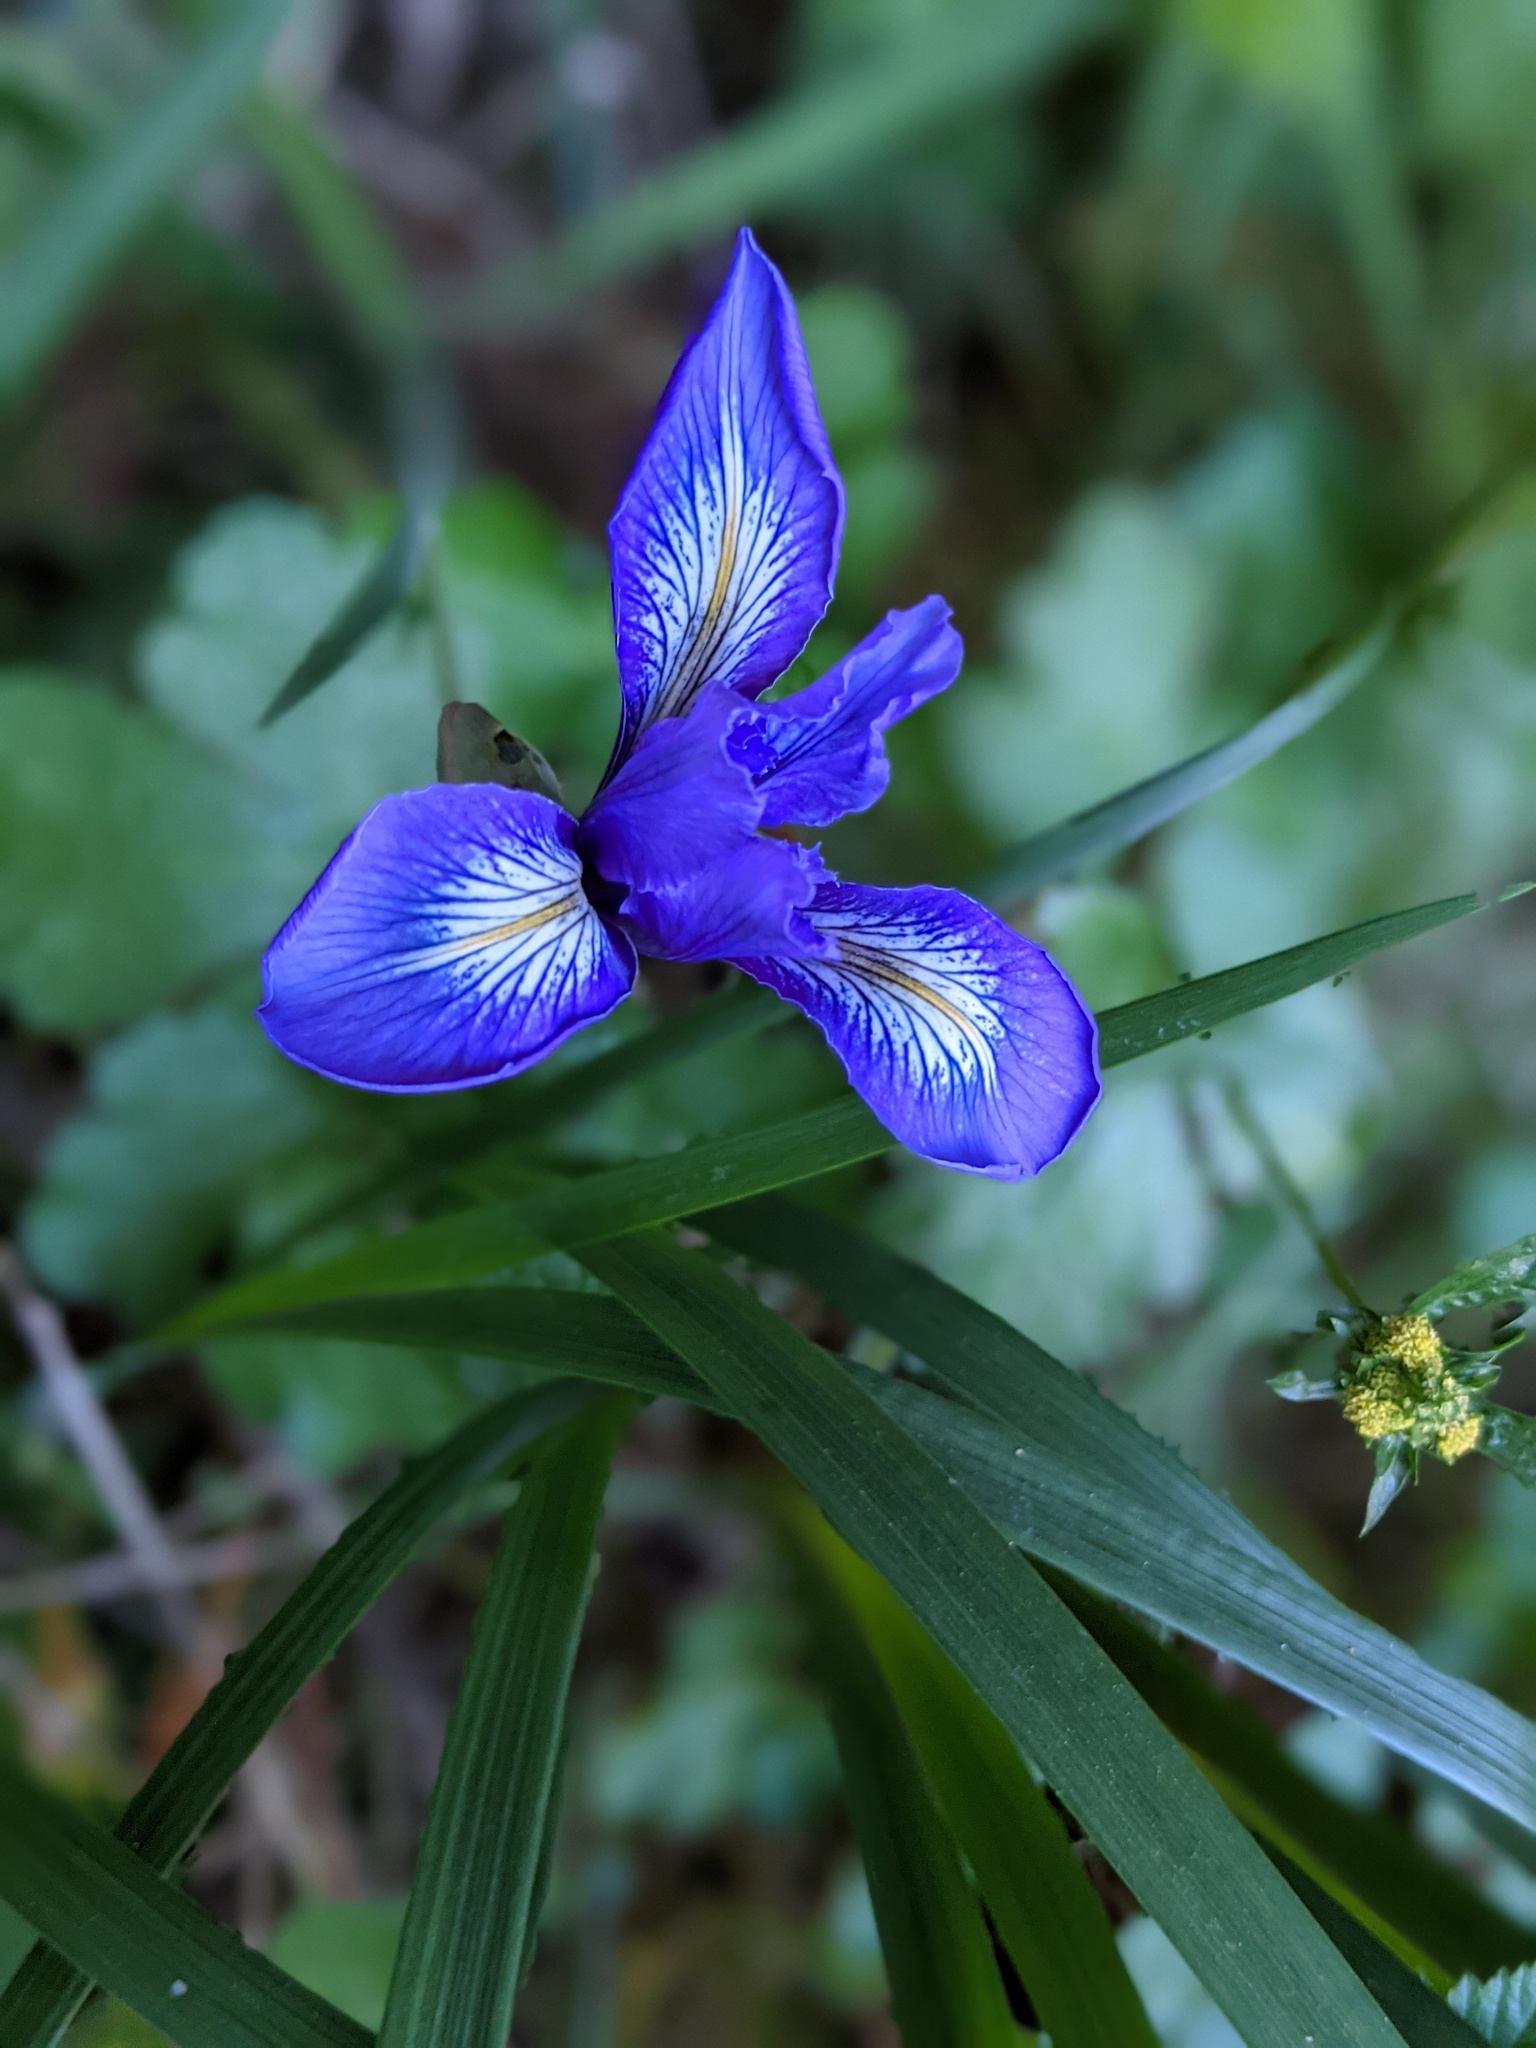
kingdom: Plantae
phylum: Tracheophyta
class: Liliopsida
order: Asparagales
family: Iridaceae
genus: Iris
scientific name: Iris douglasiana
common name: Marin iris
